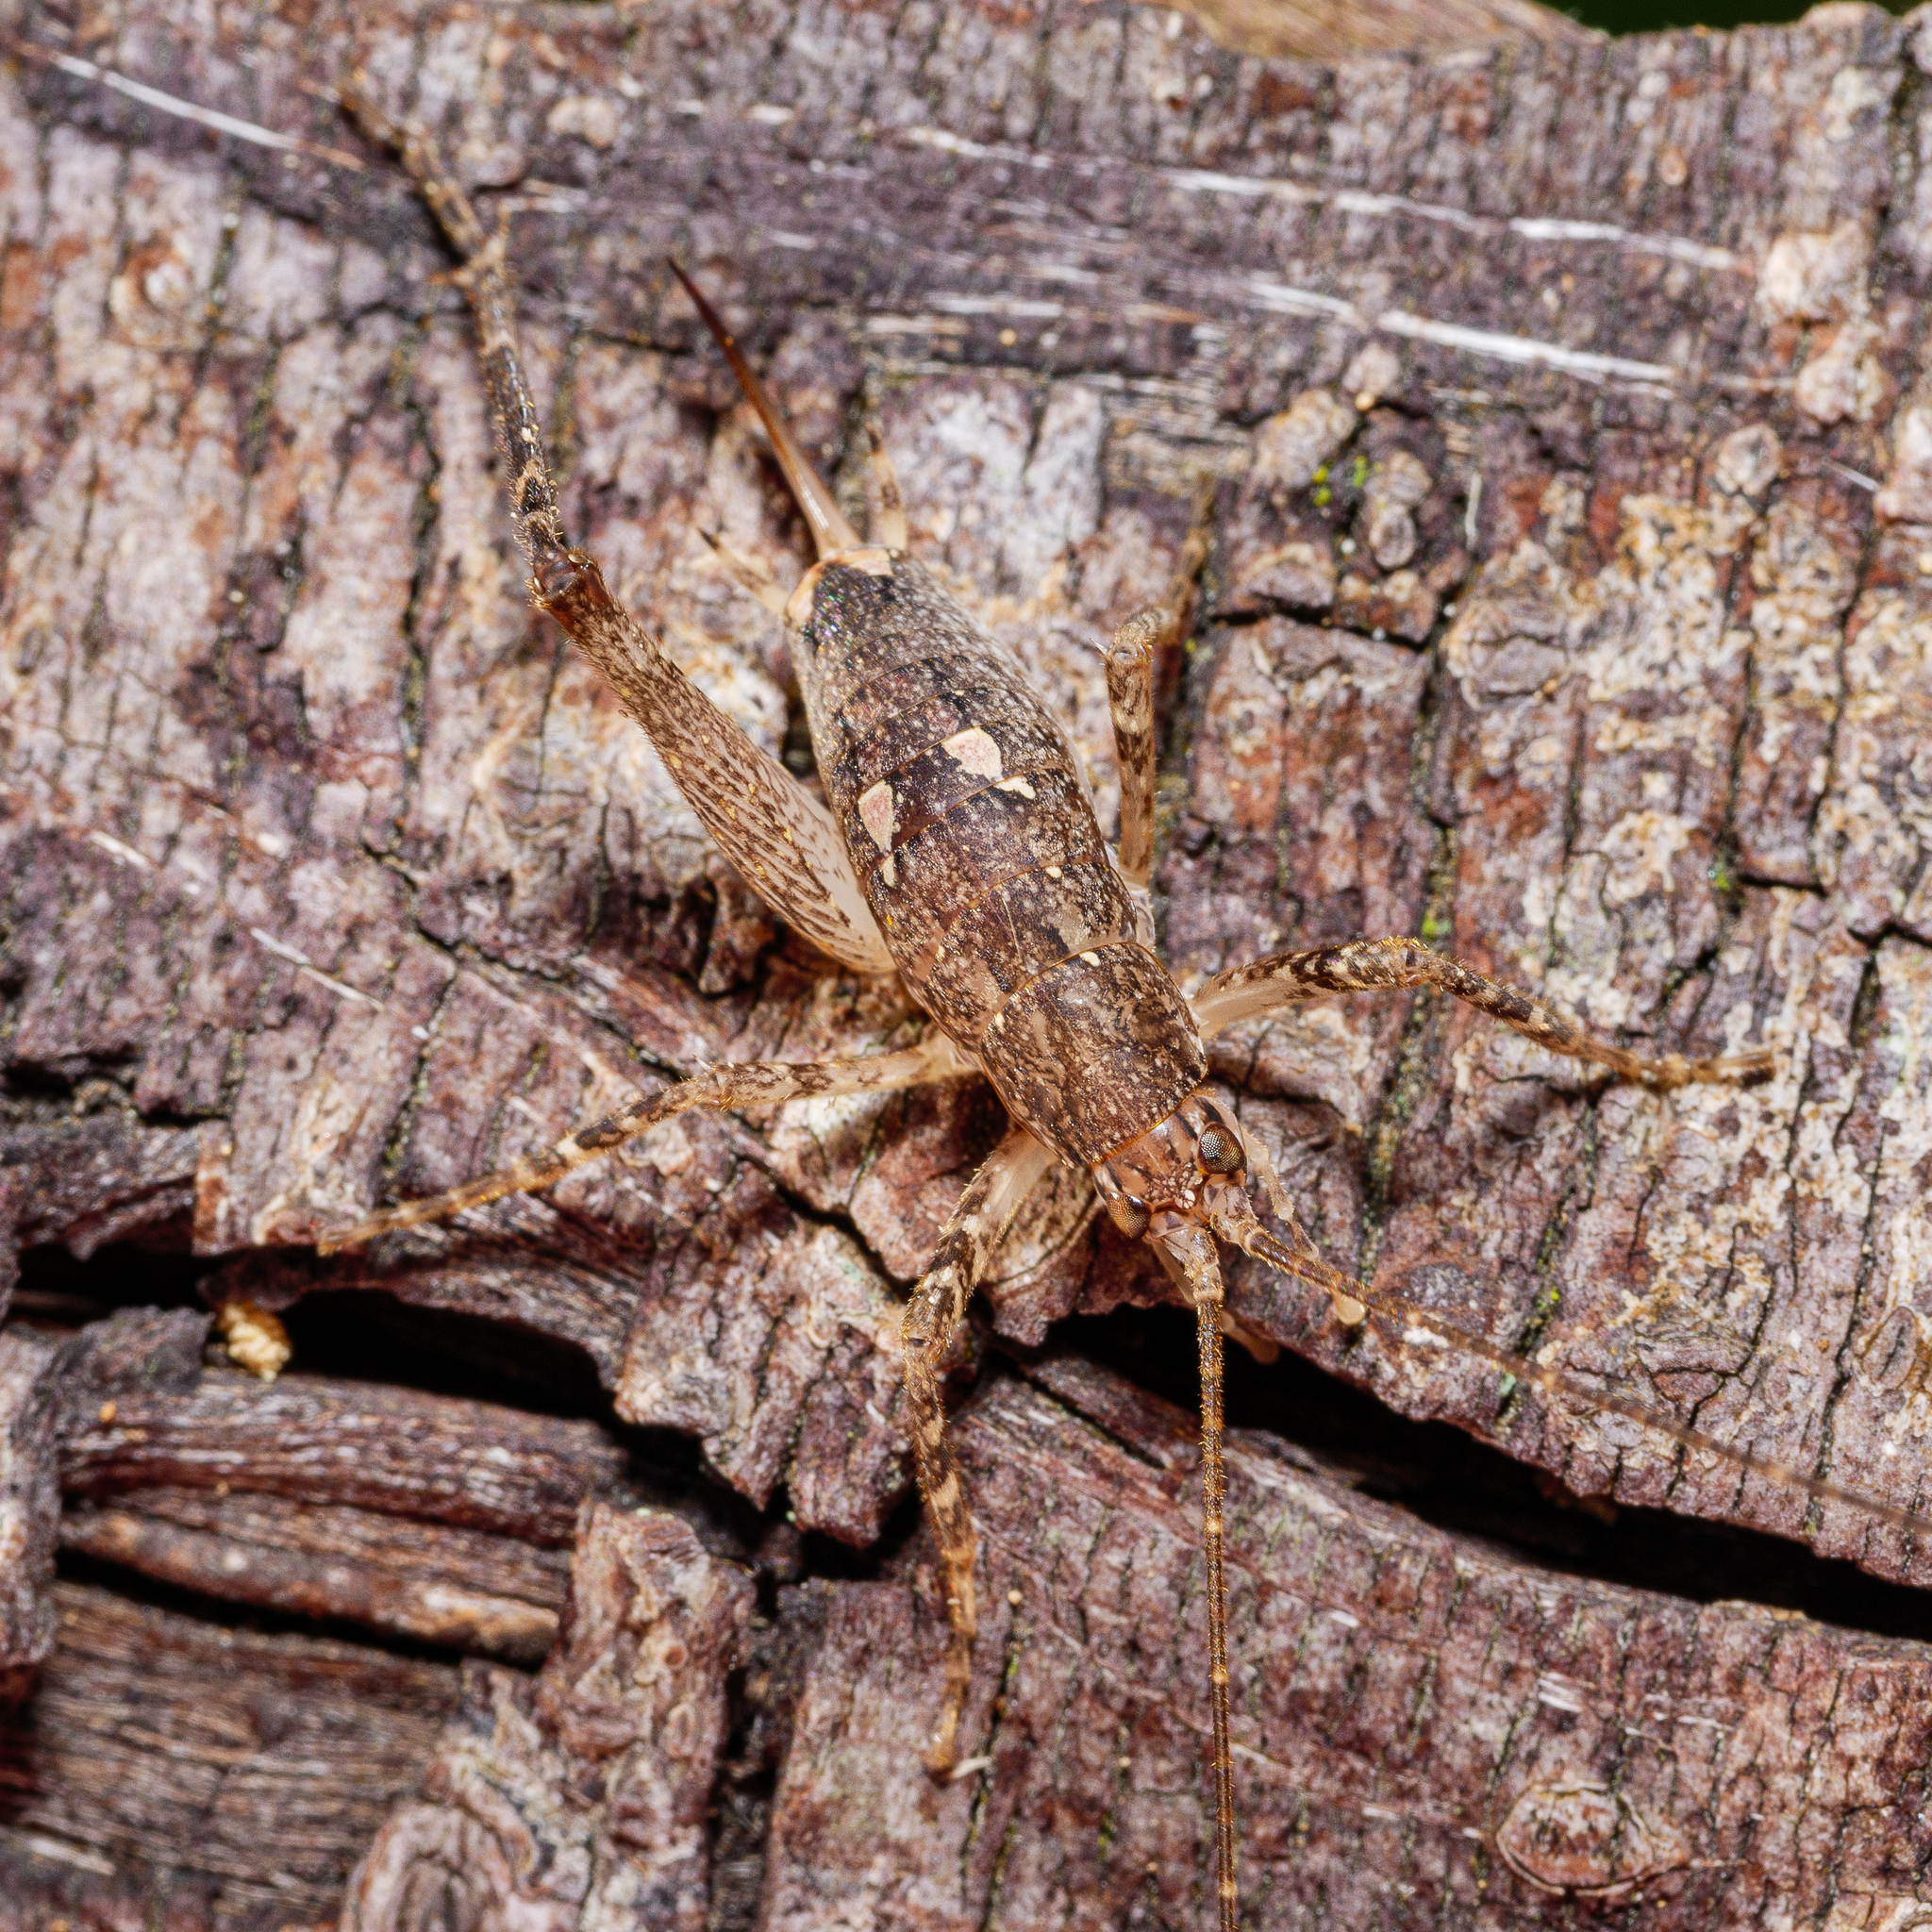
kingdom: Animalia
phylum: Arthropoda
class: Insecta
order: Orthoptera
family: Rhaphidophoridae
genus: Isoplectron
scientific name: Isoplectron armatum
